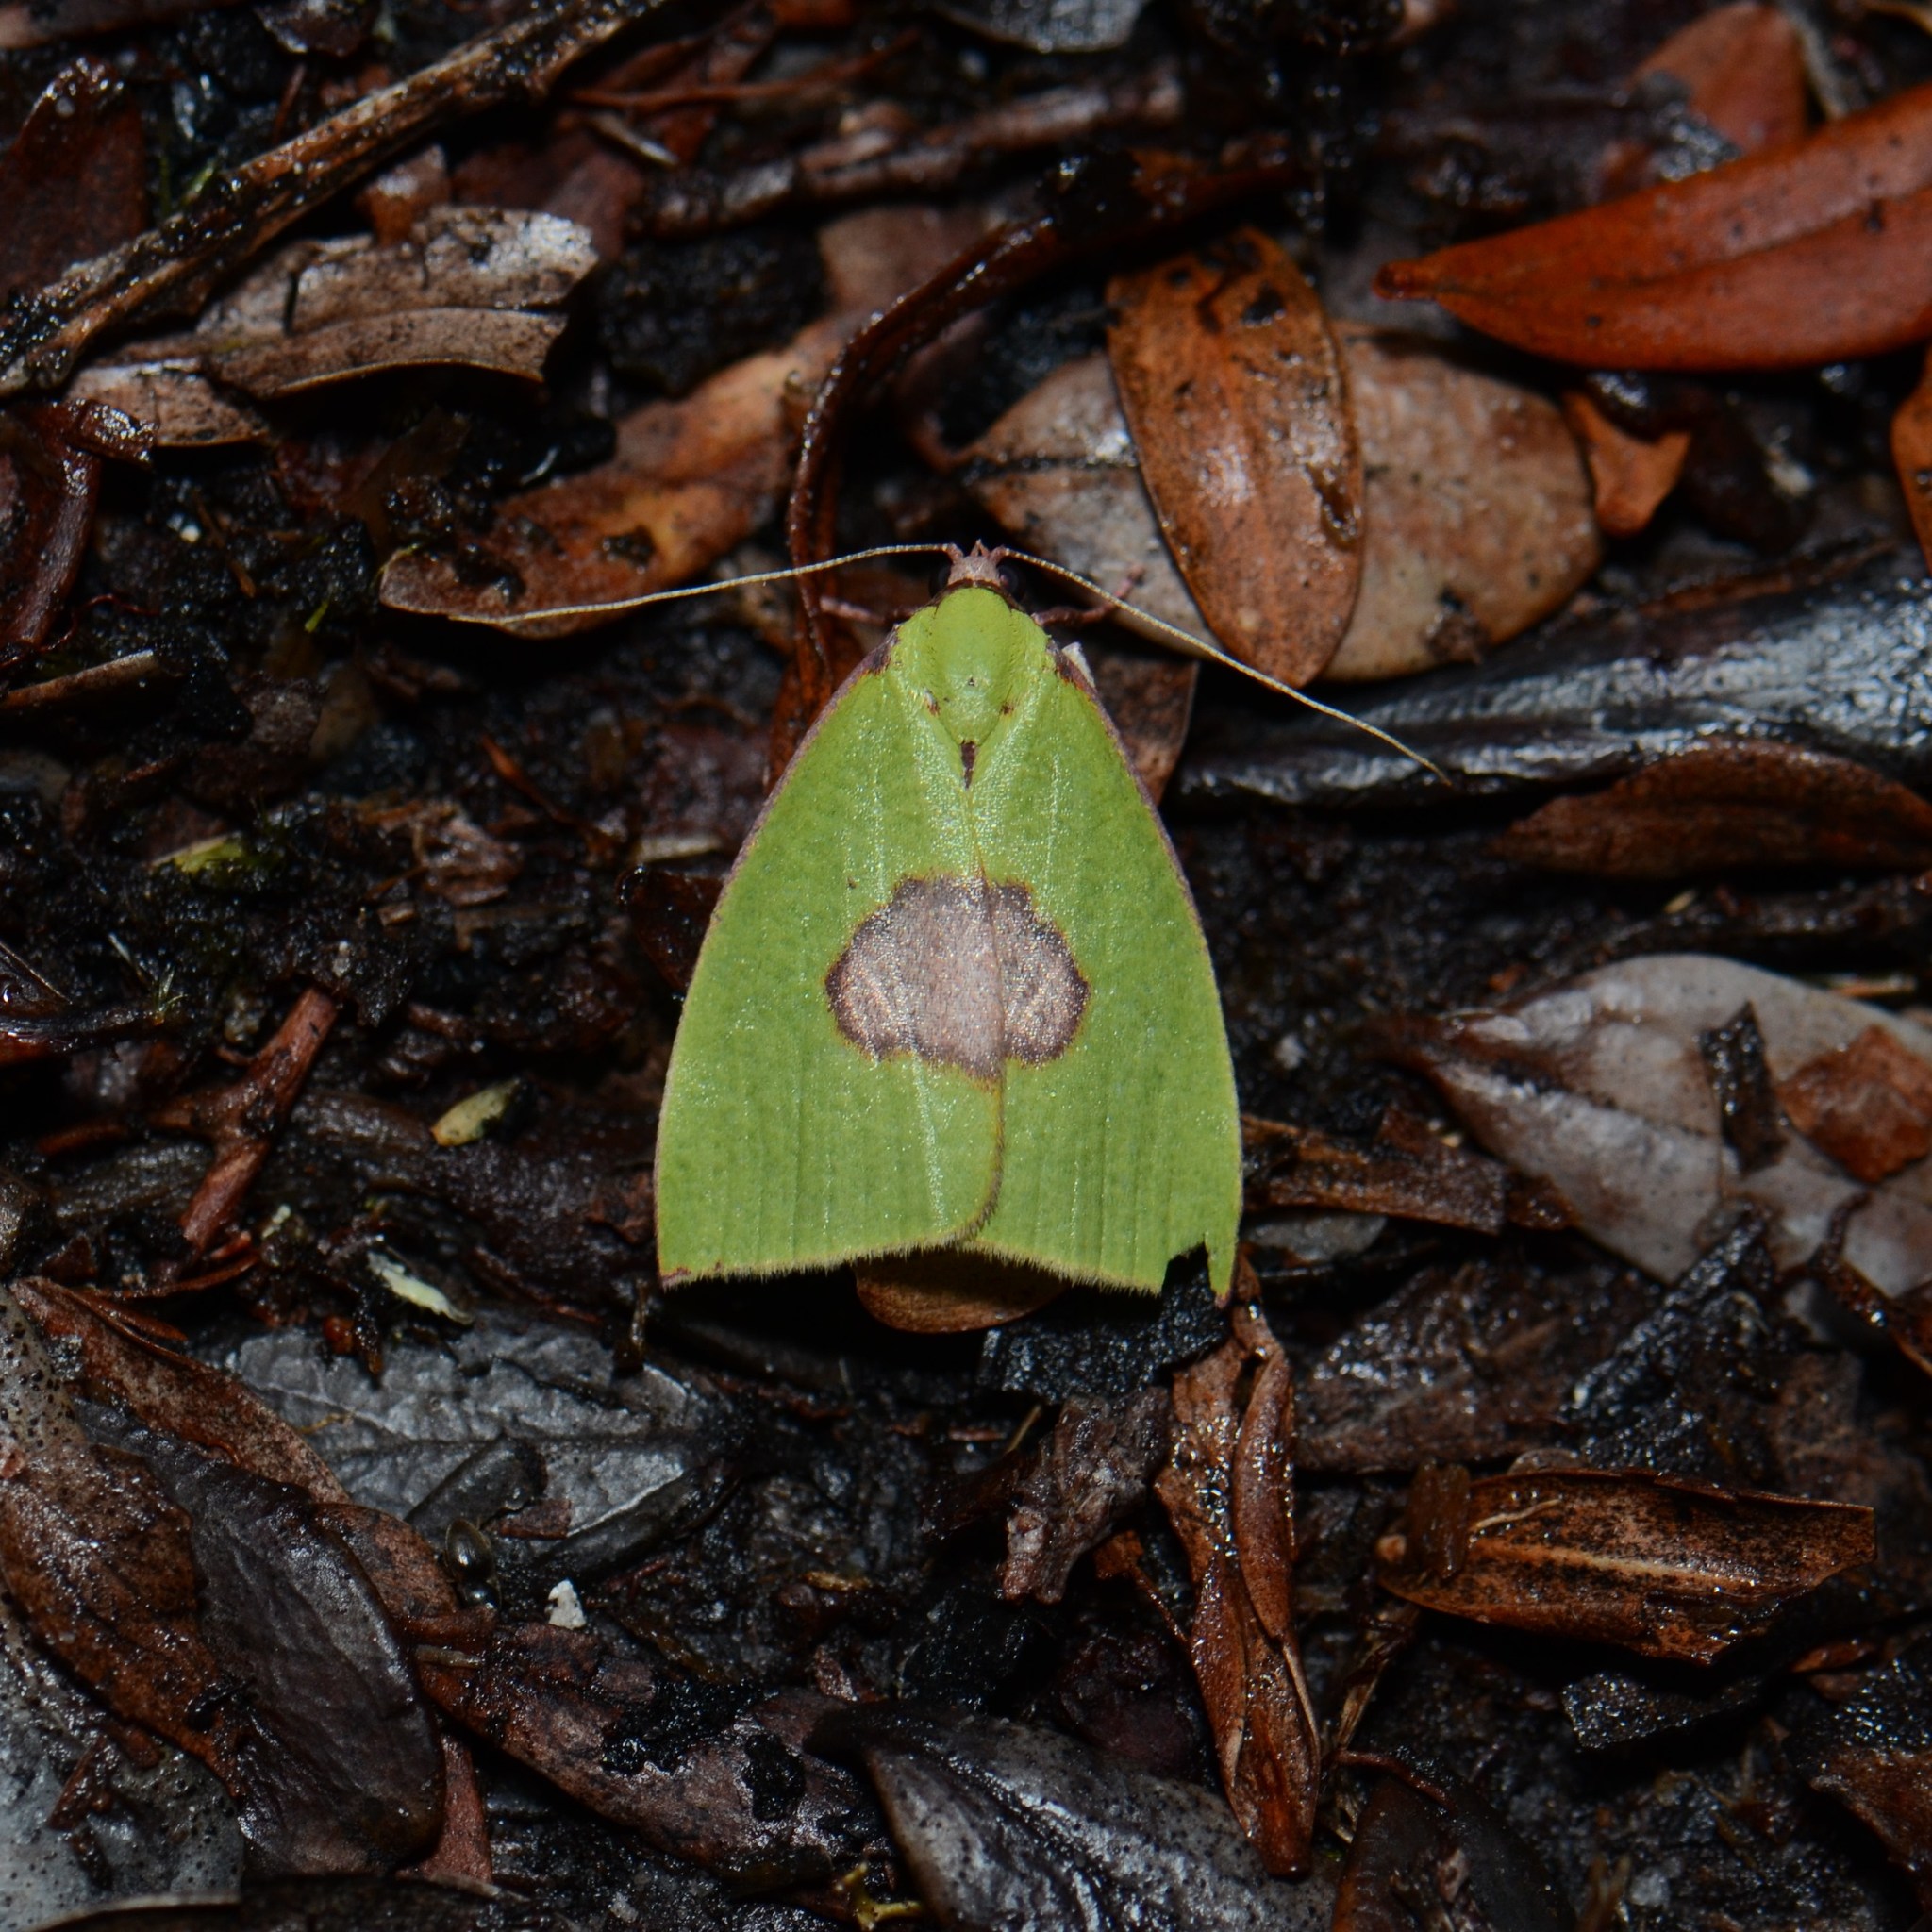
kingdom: Animalia
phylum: Arthropoda
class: Insecta
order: Lepidoptera
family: Nolidae
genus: Tyana
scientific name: Tyana pustulifera
